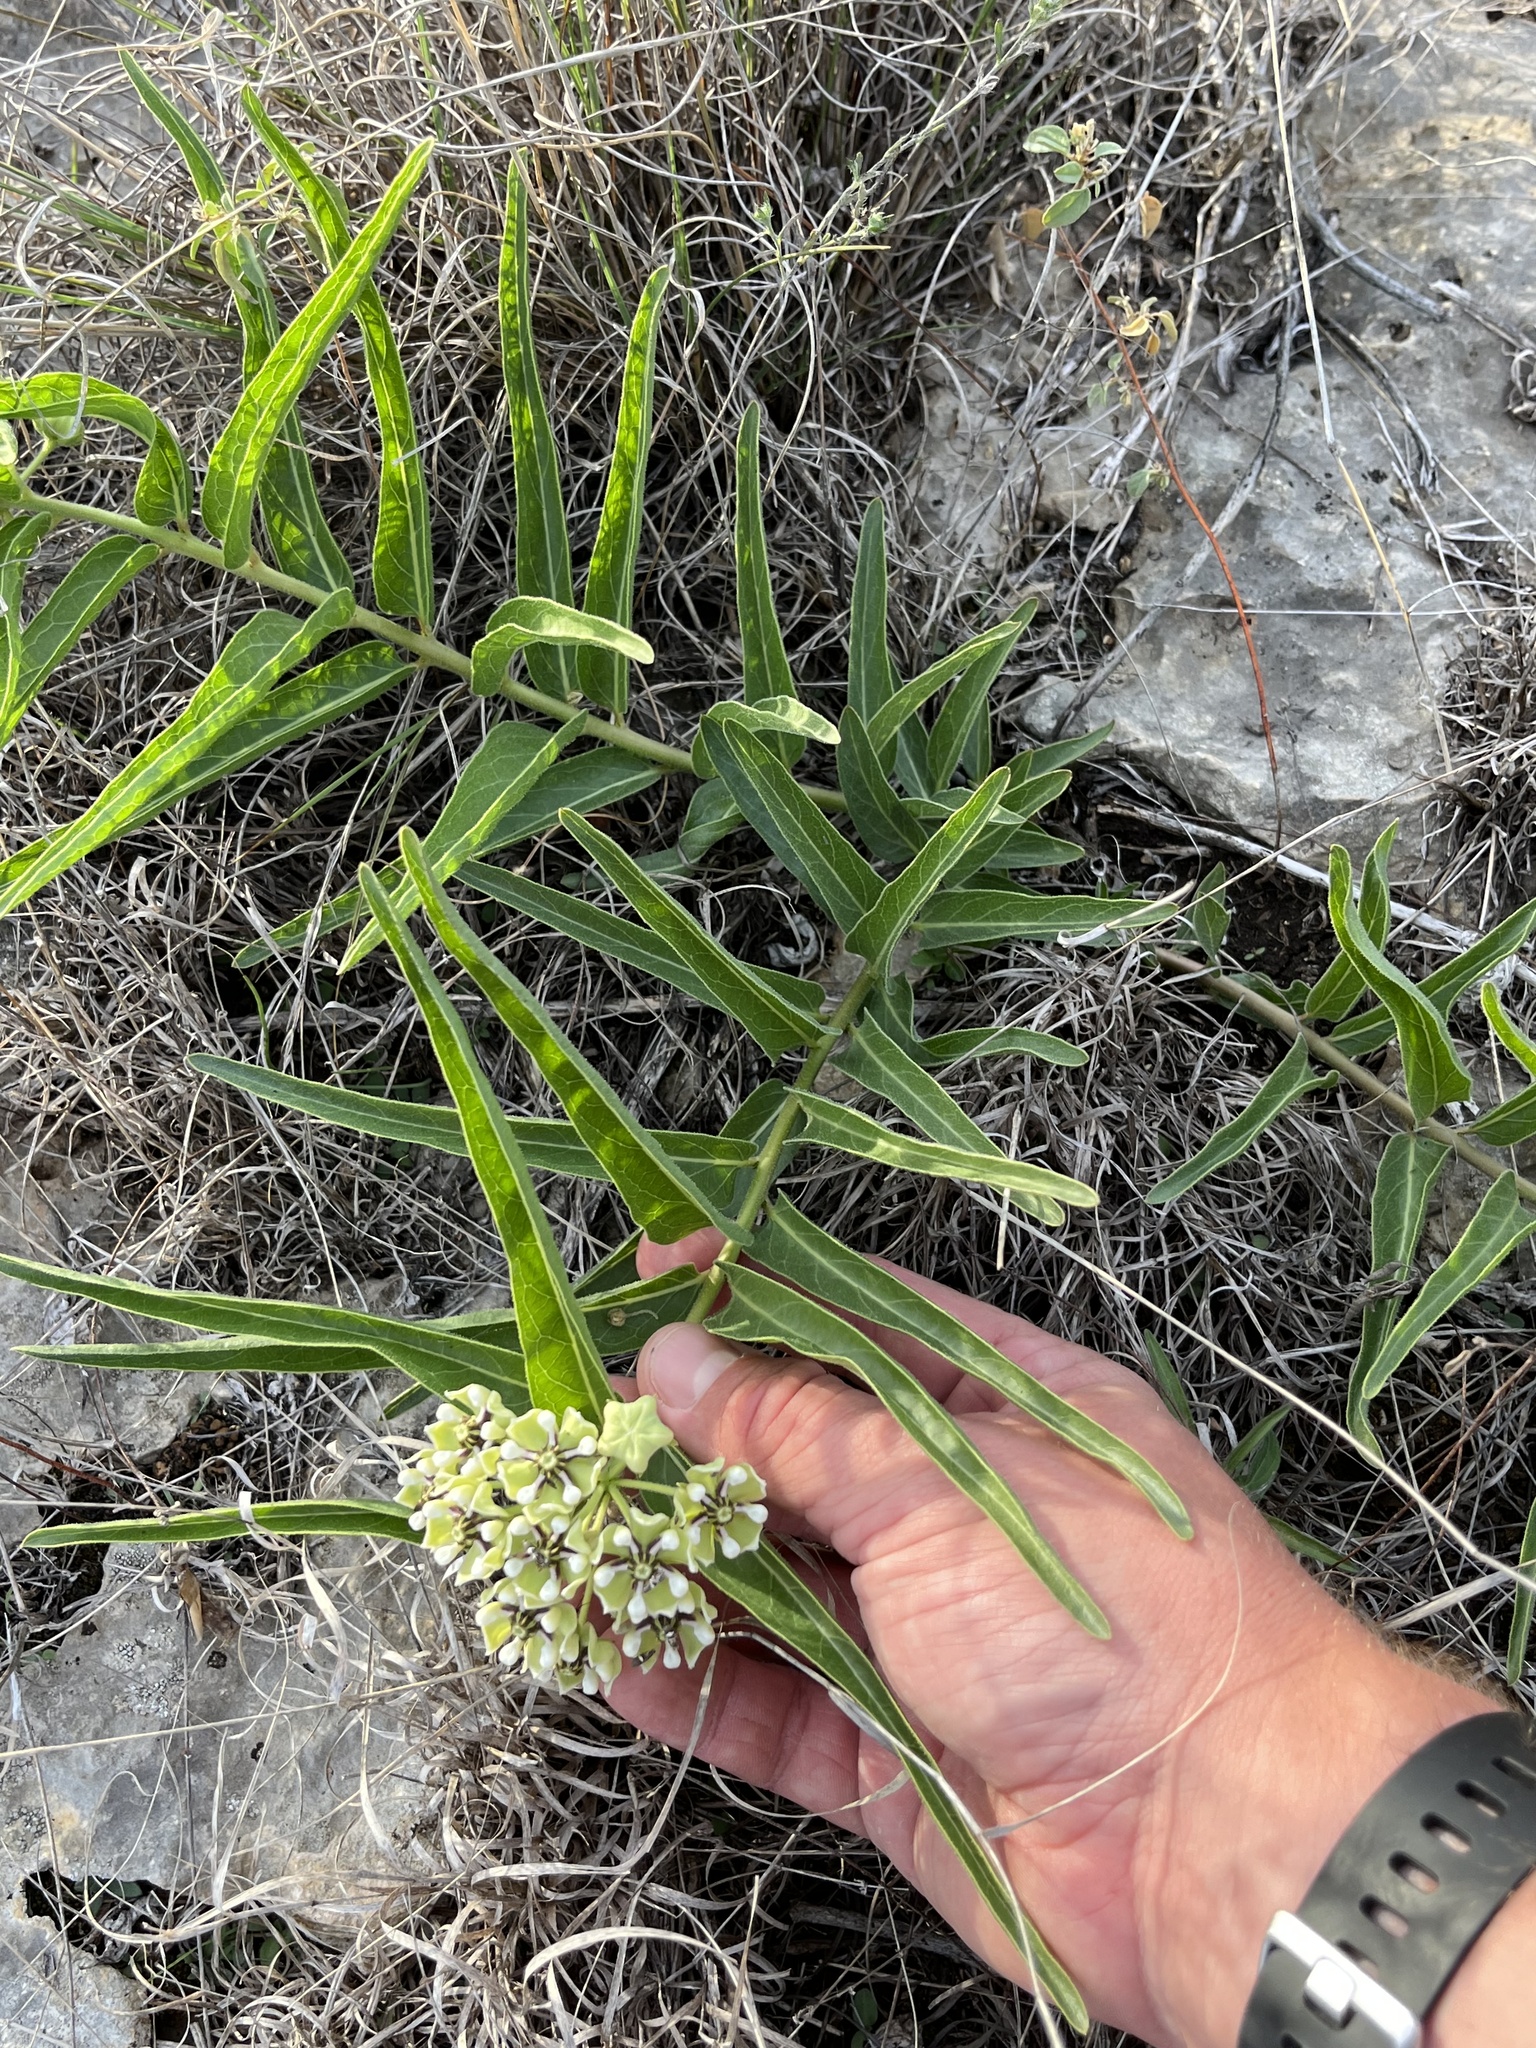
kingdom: Plantae
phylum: Tracheophyta
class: Magnoliopsida
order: Gentianales
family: Apocynaceae
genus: Asclepias
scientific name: Asclepias asperula
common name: Antelope horns
